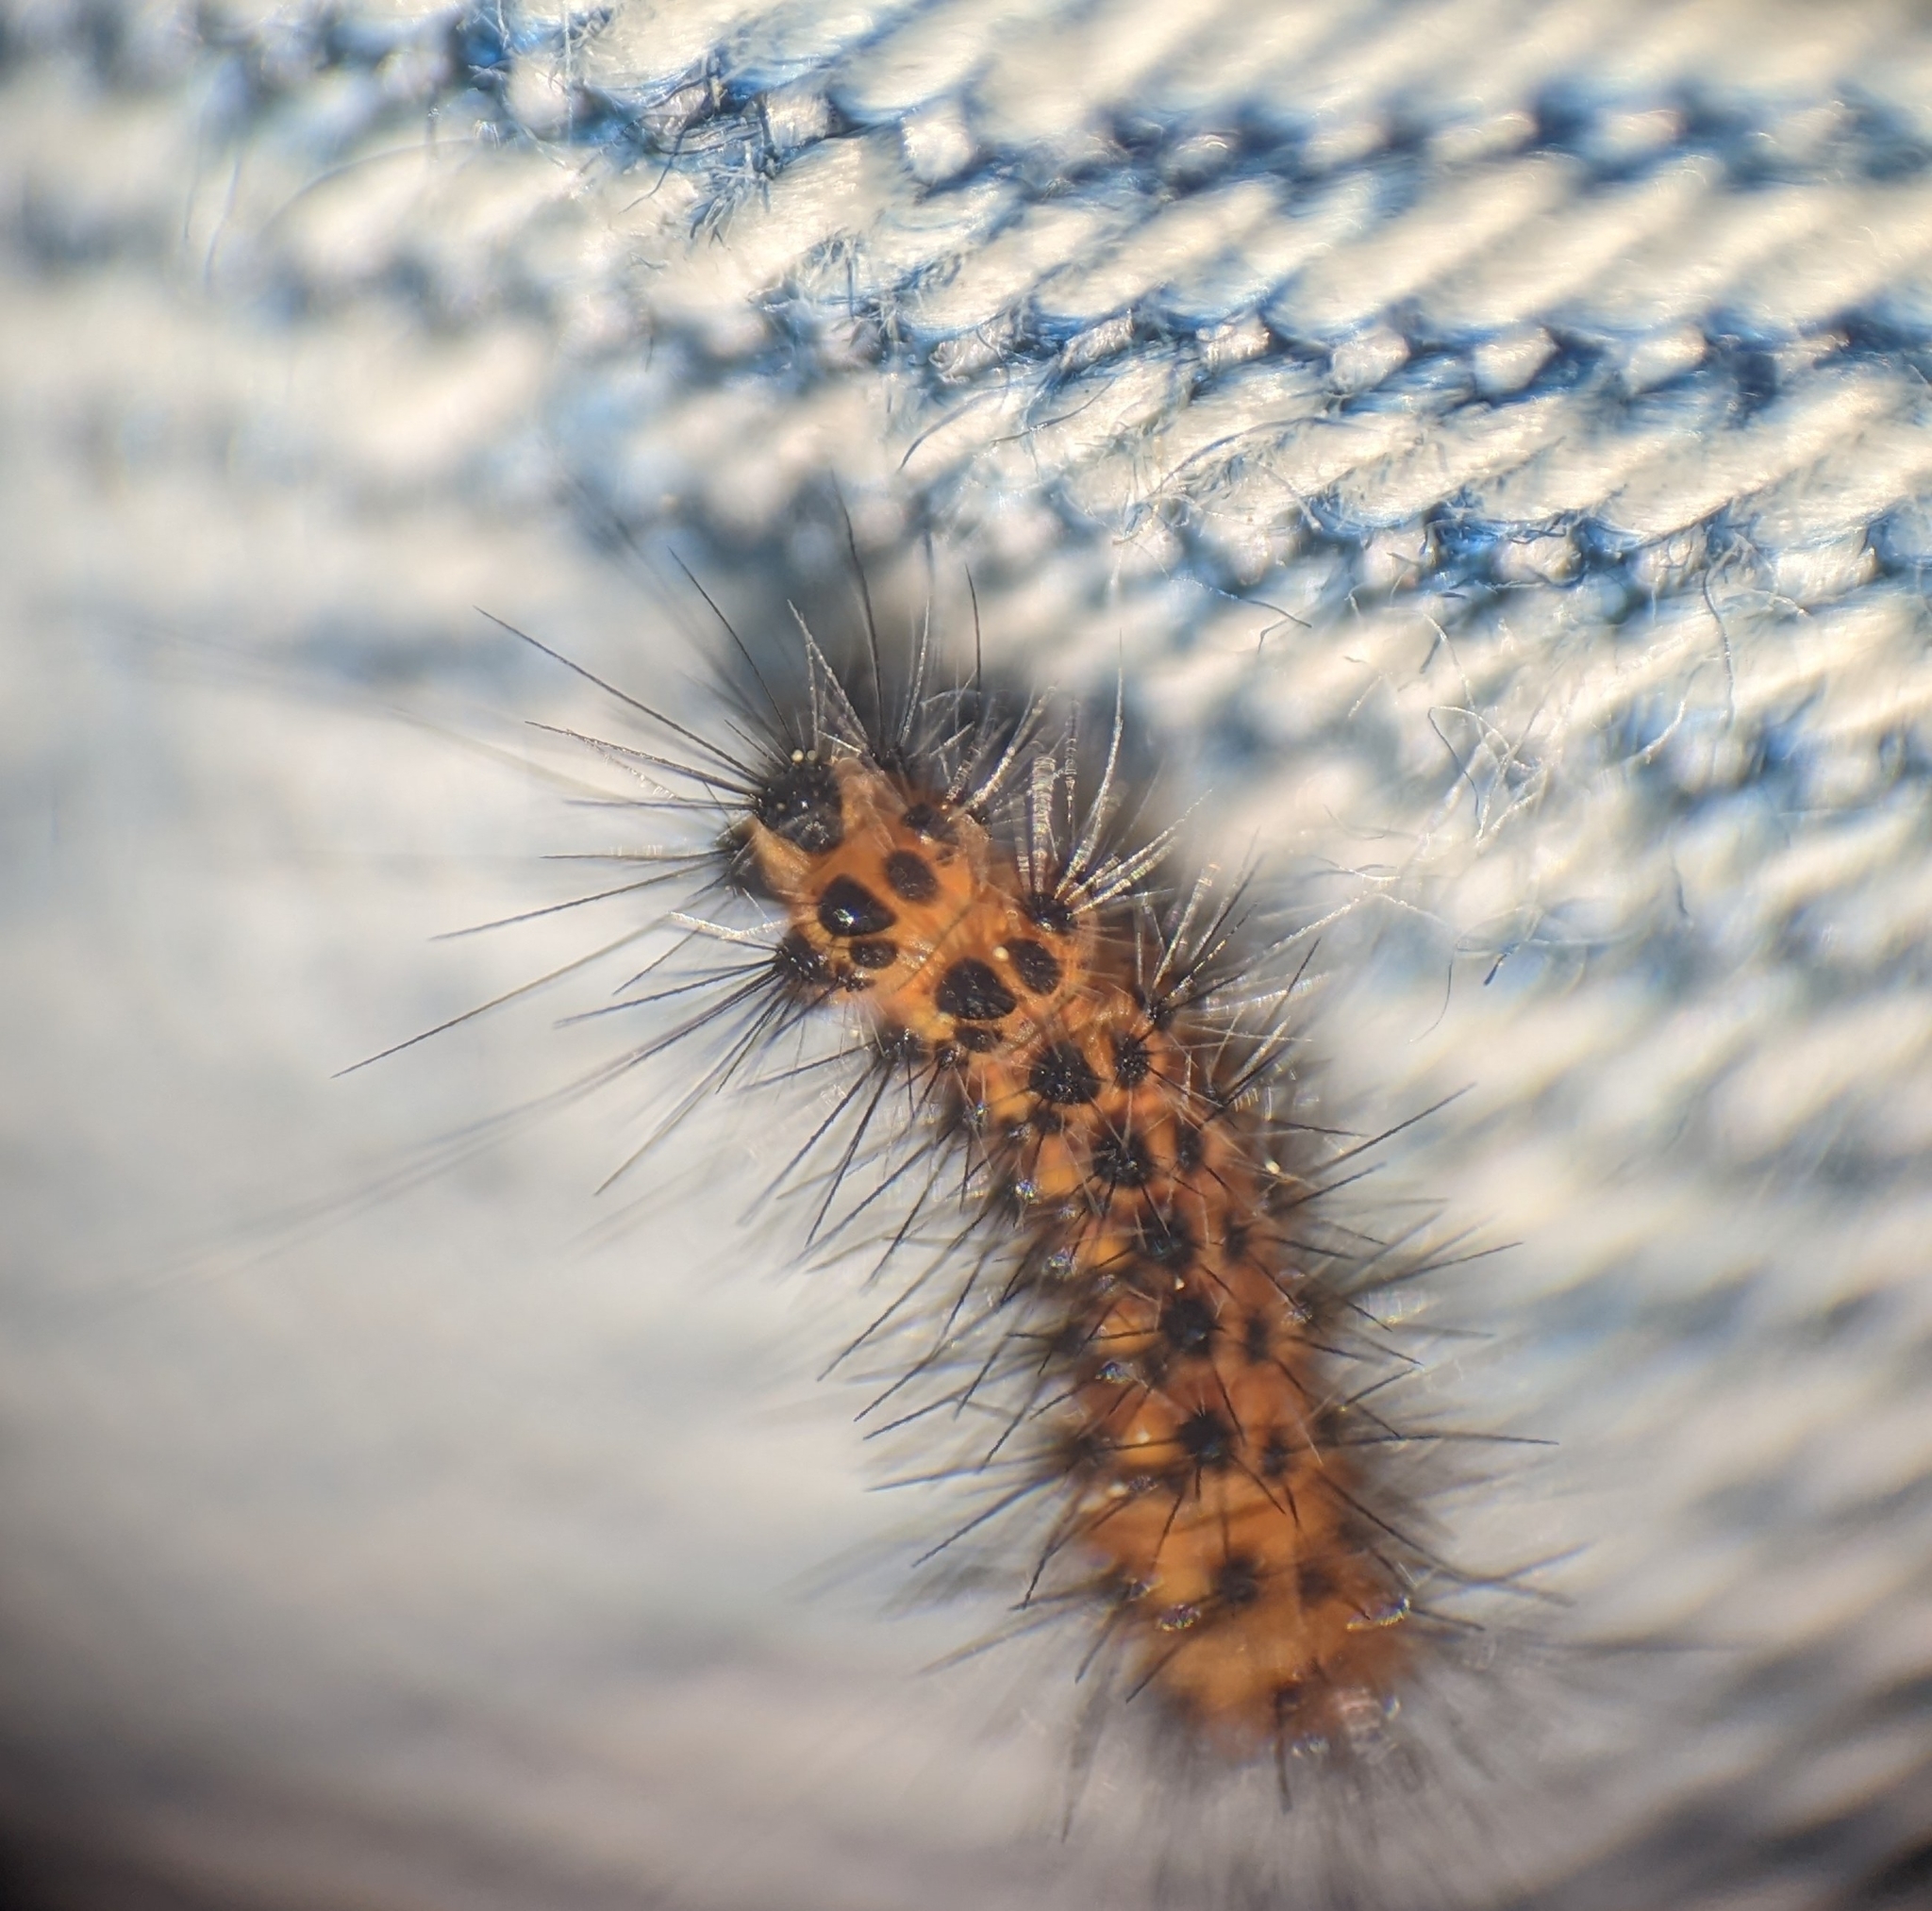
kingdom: Animalia
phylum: Arthropoda
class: Insecta
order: Lepidoptera
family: Erebidae
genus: Spilosoma
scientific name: Spilosoma dubia
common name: Dubious tiger moth
